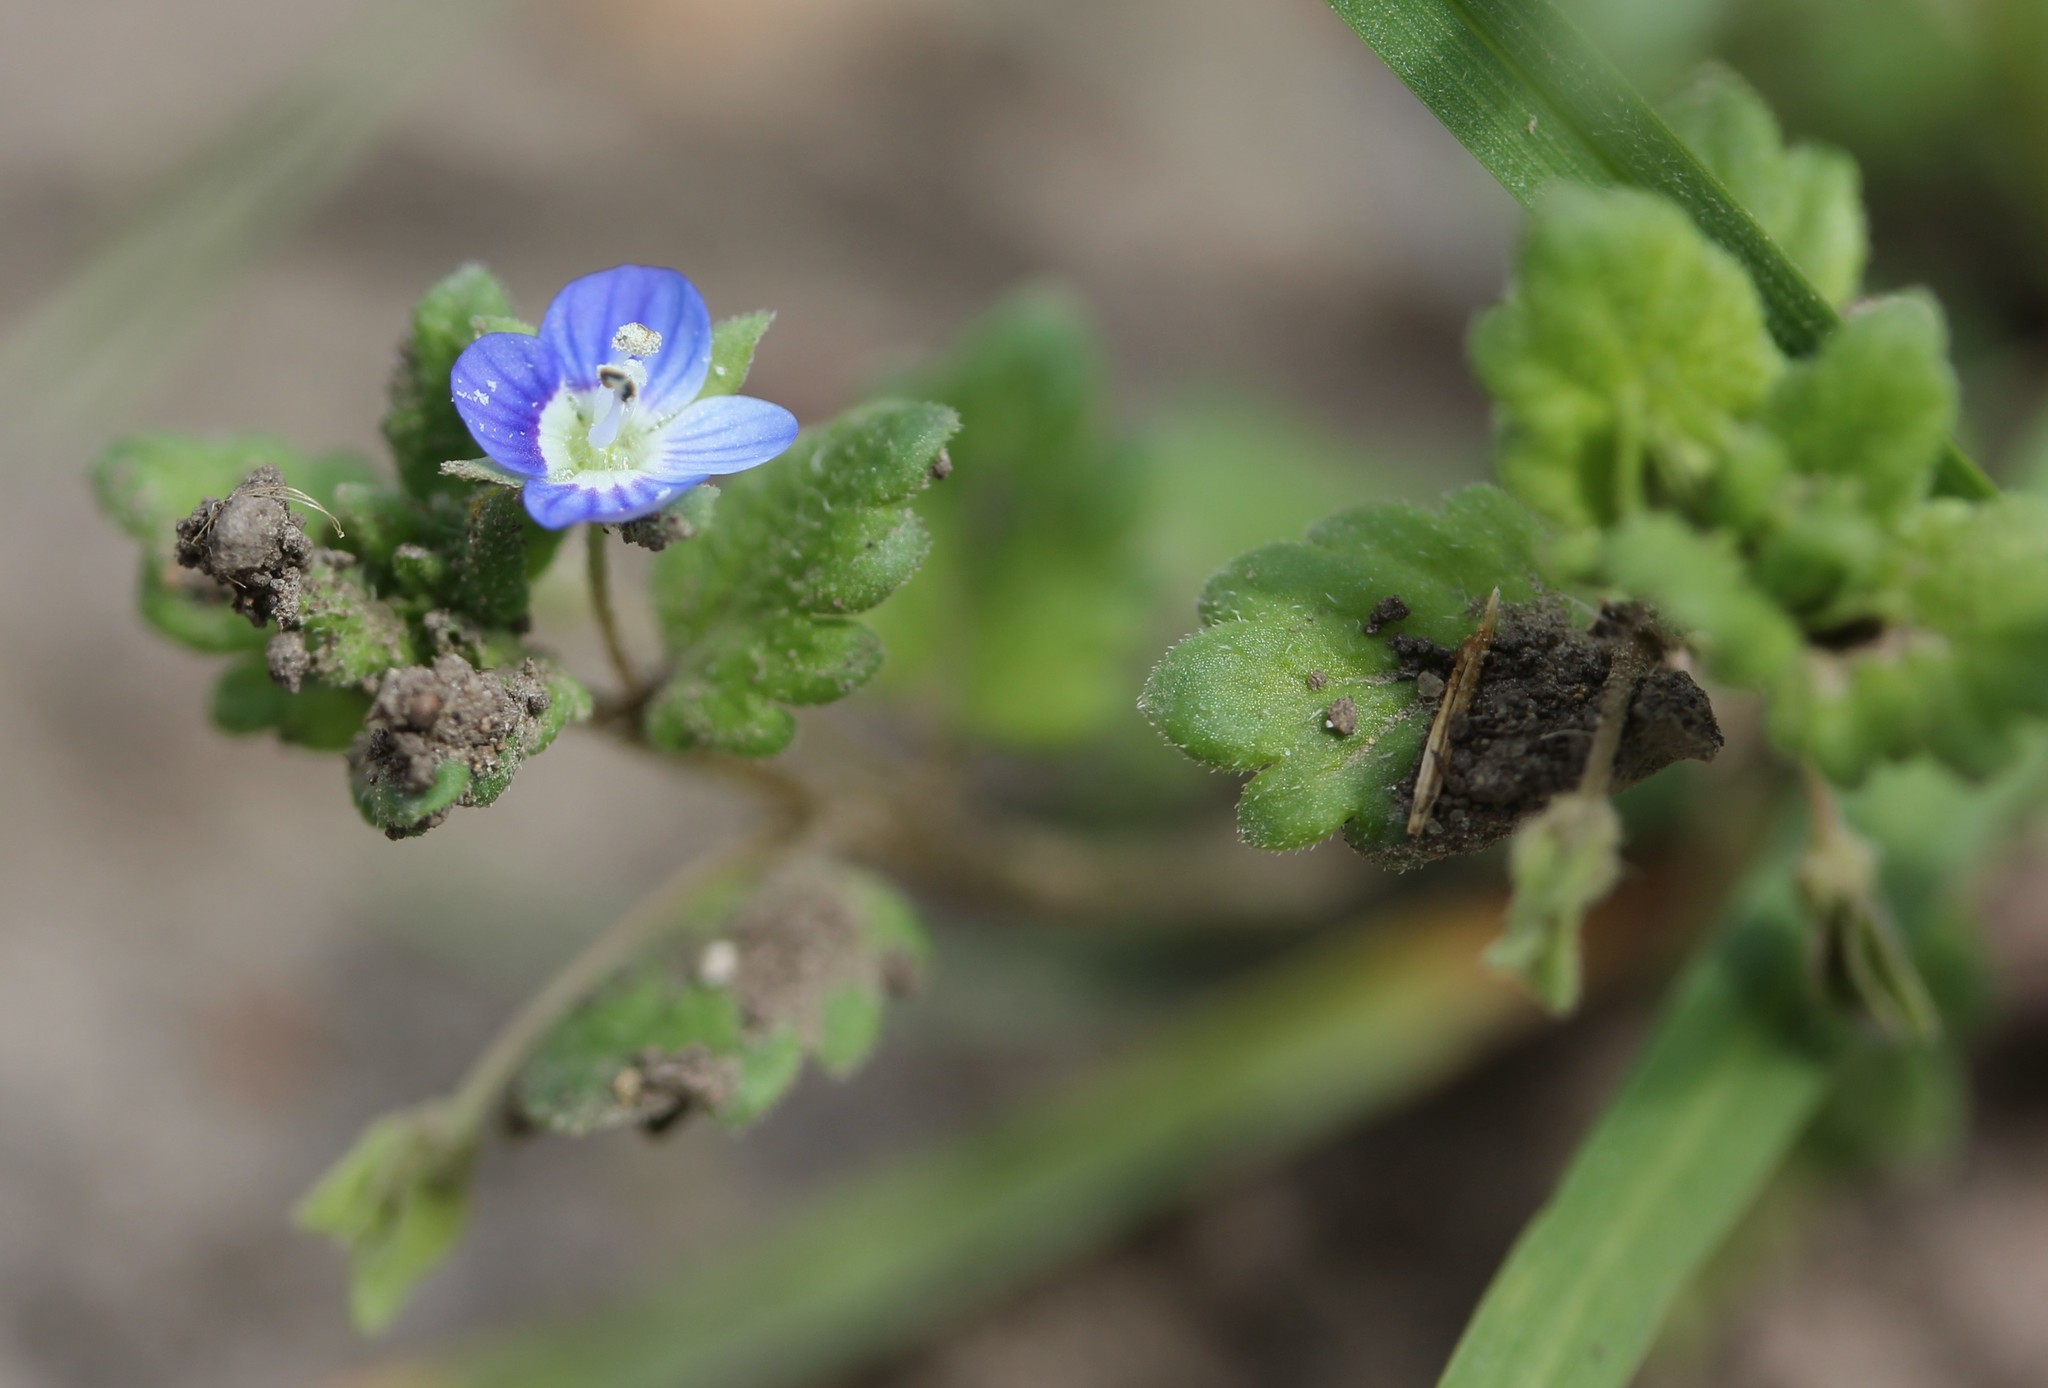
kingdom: Plantae
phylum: Tracheophyta
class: Magnoliopsida
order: Lamiales
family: Plantaginaceae
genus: Veronica
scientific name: Veronica persica
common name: Common field-speedwell
